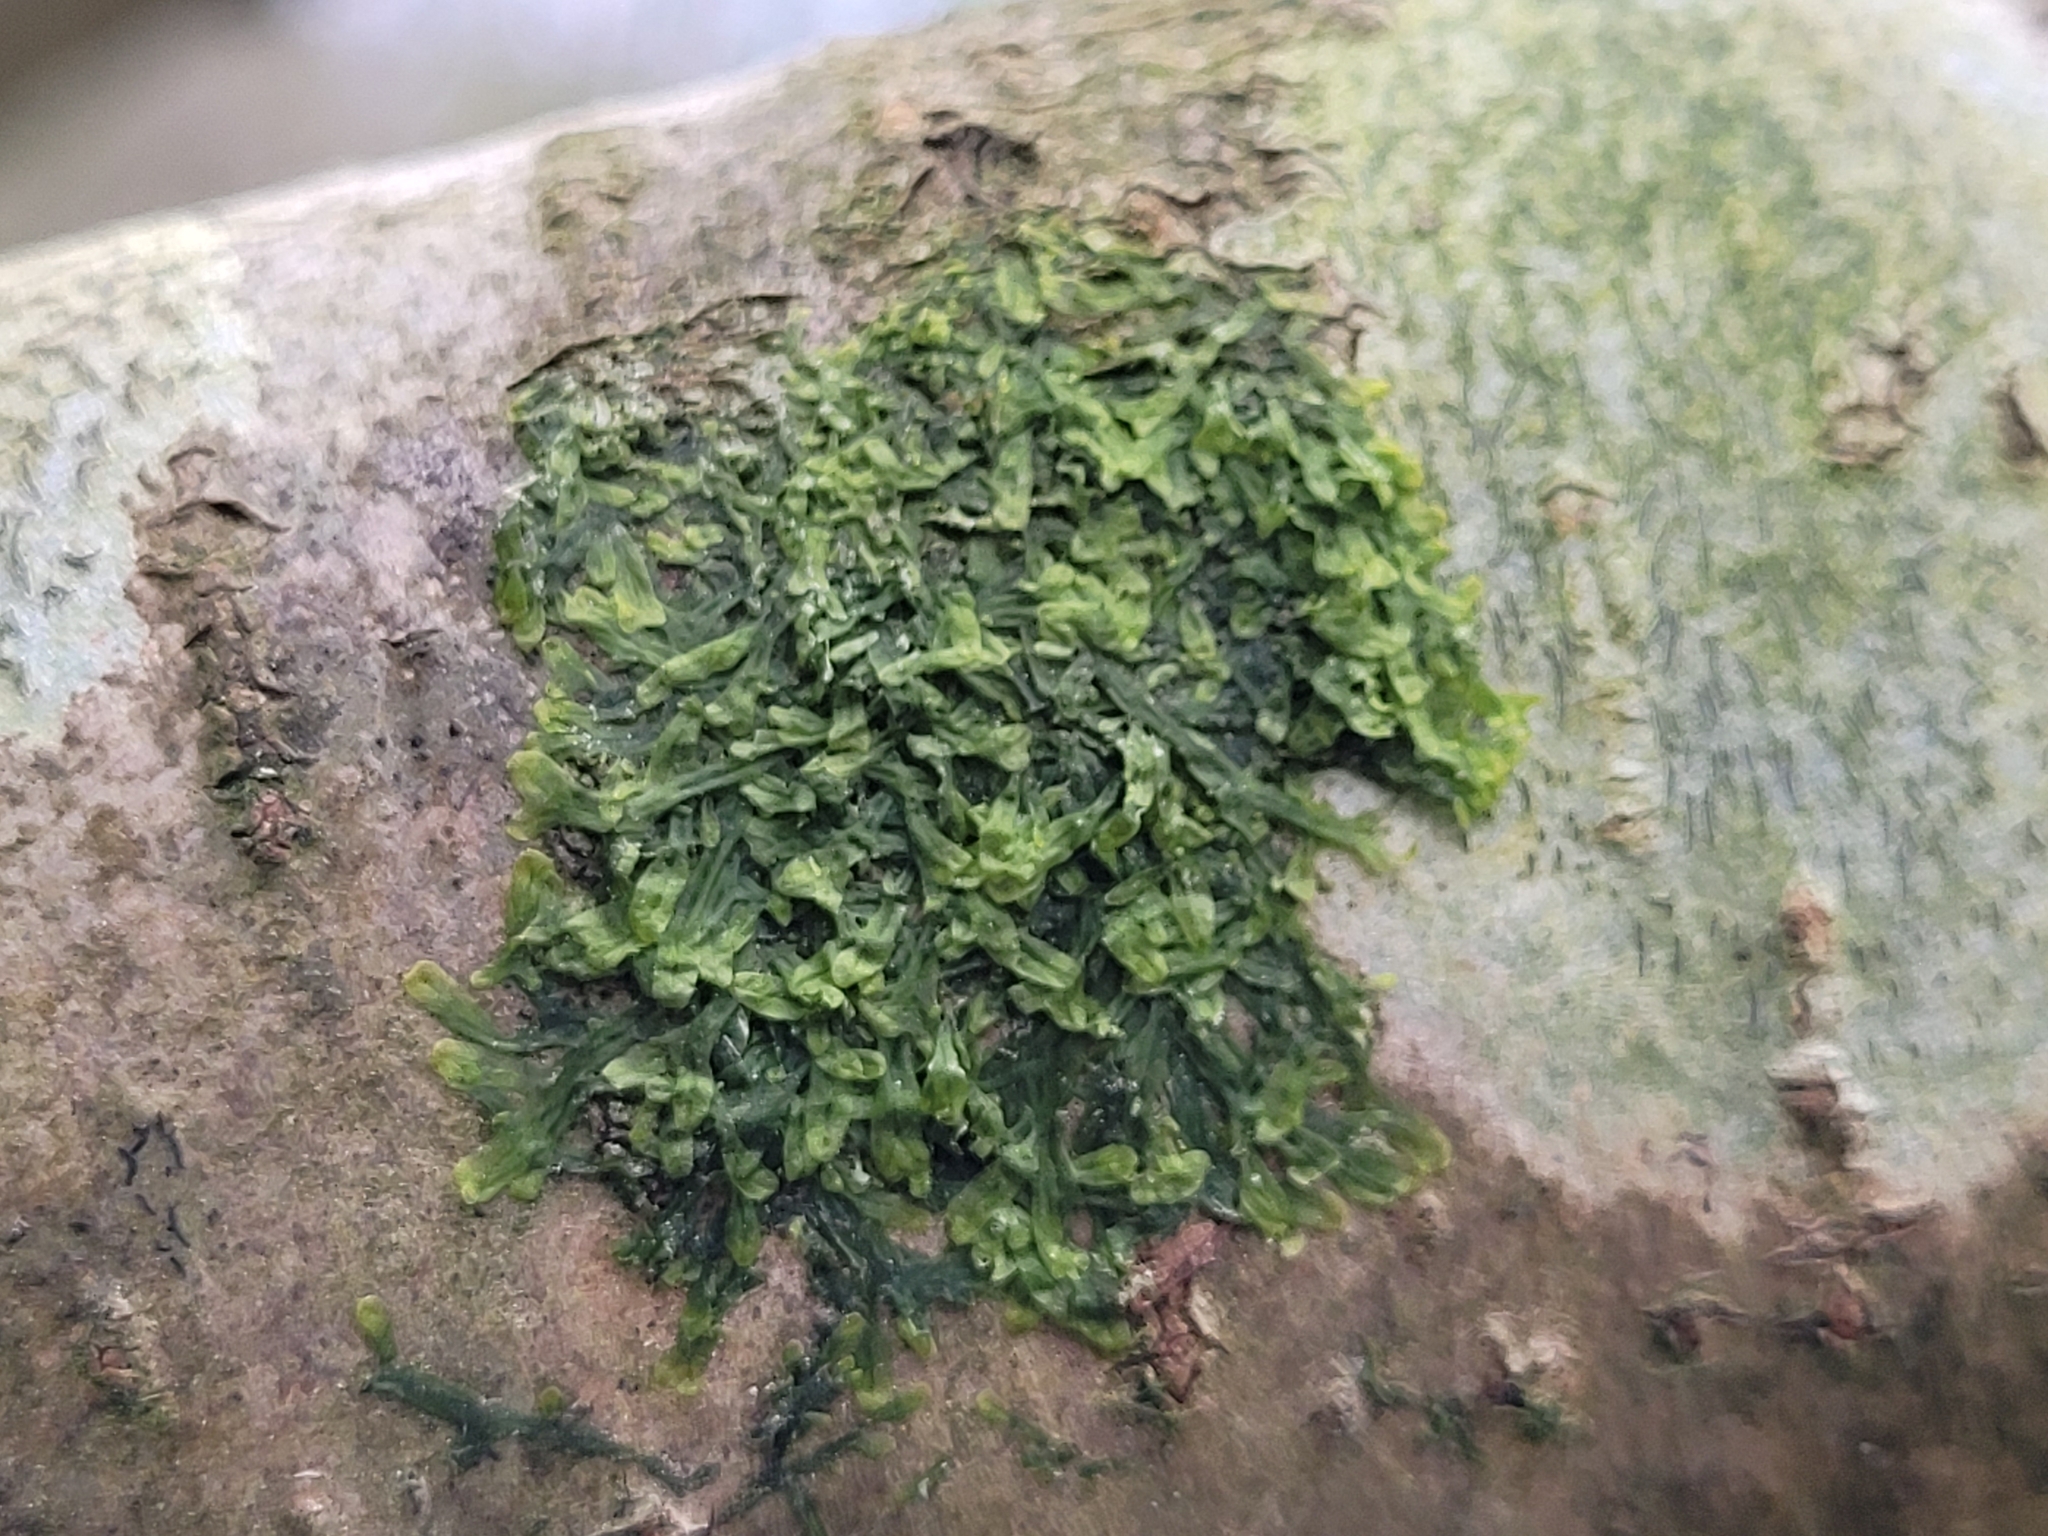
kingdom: Plantae
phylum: Marchantiophyta
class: Jungermanniopsida
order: Metzgeriales
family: Metzgeriaceae
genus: Metzgeria
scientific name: Metzgeria furcata
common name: Forked veilwort
